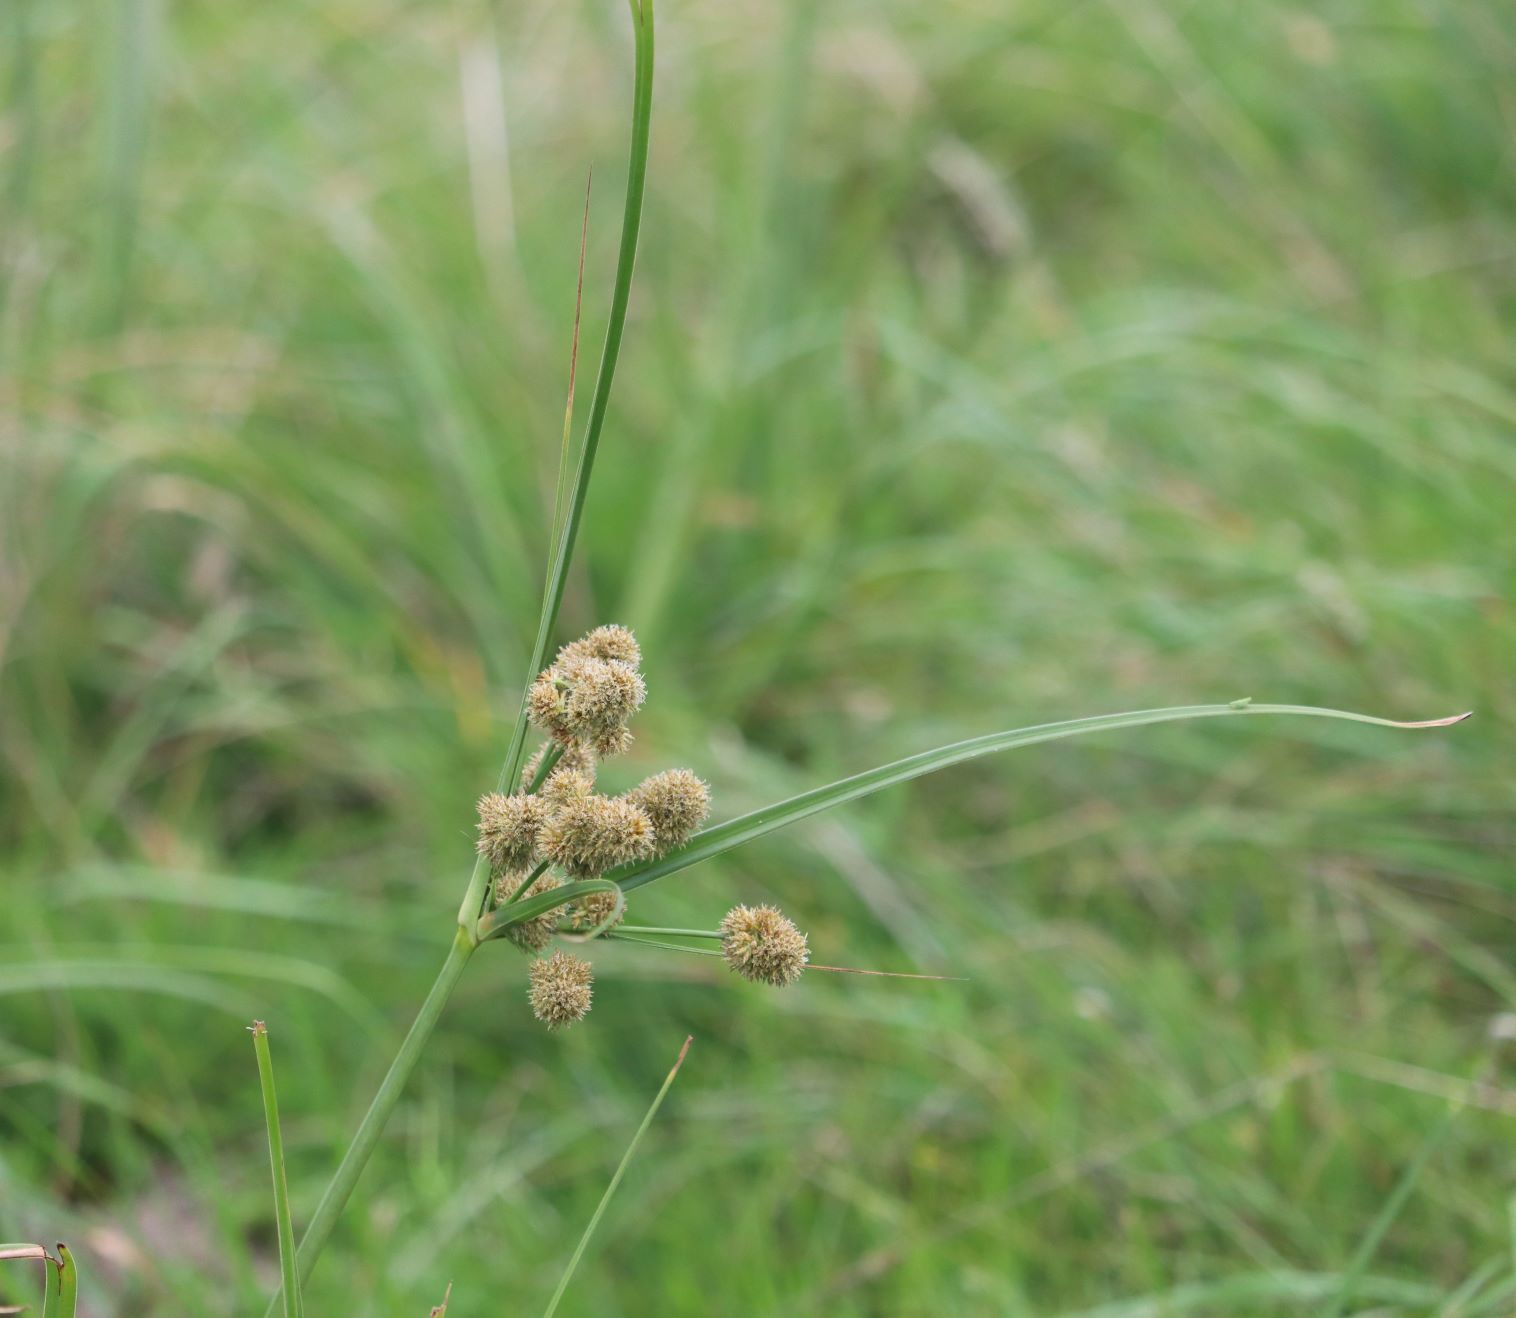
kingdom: Plantae
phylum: Tracheophyta
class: Liliopsida
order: Poales
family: Cyperaceae
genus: Cyperus
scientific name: Cyperus solidus
